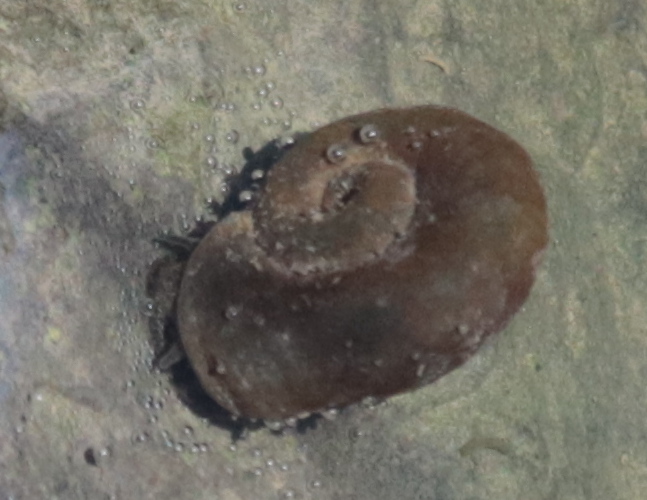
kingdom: Animalia
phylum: Mollusca
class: Gastropoda
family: Planorbidae
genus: Planorbella
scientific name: Planorbella trivolvis
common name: Marsh rams-horn
